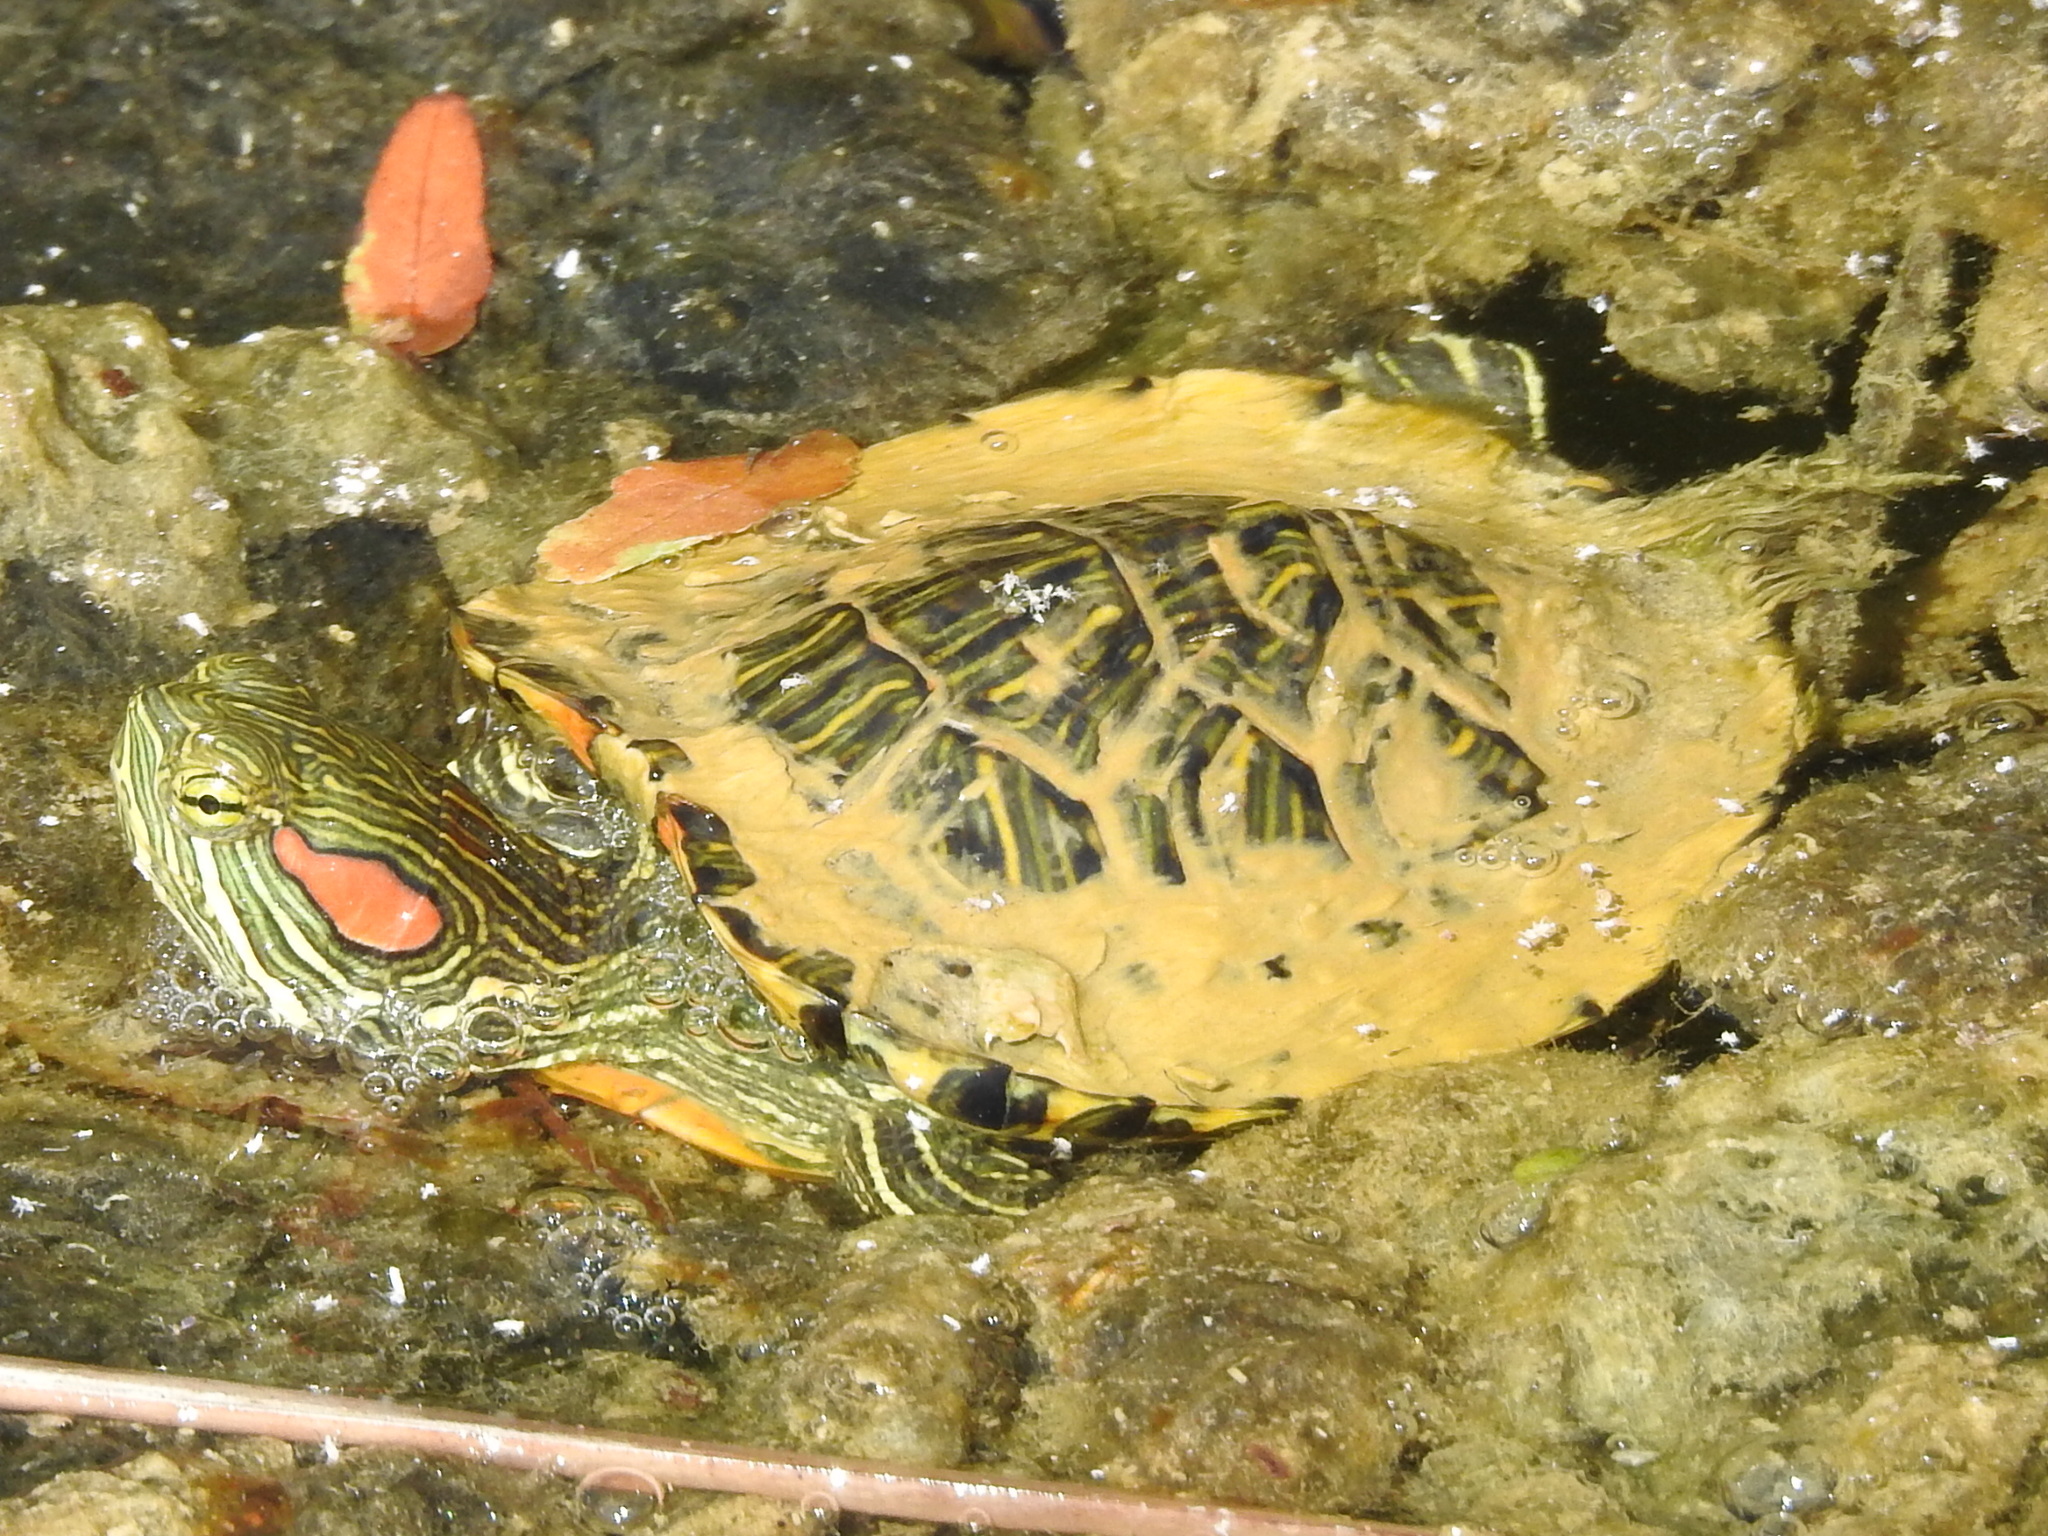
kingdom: Animalia
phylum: Chordata
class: Testudines
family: Emydidae
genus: Trachemys
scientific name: Trachemys scripta
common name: Slider
